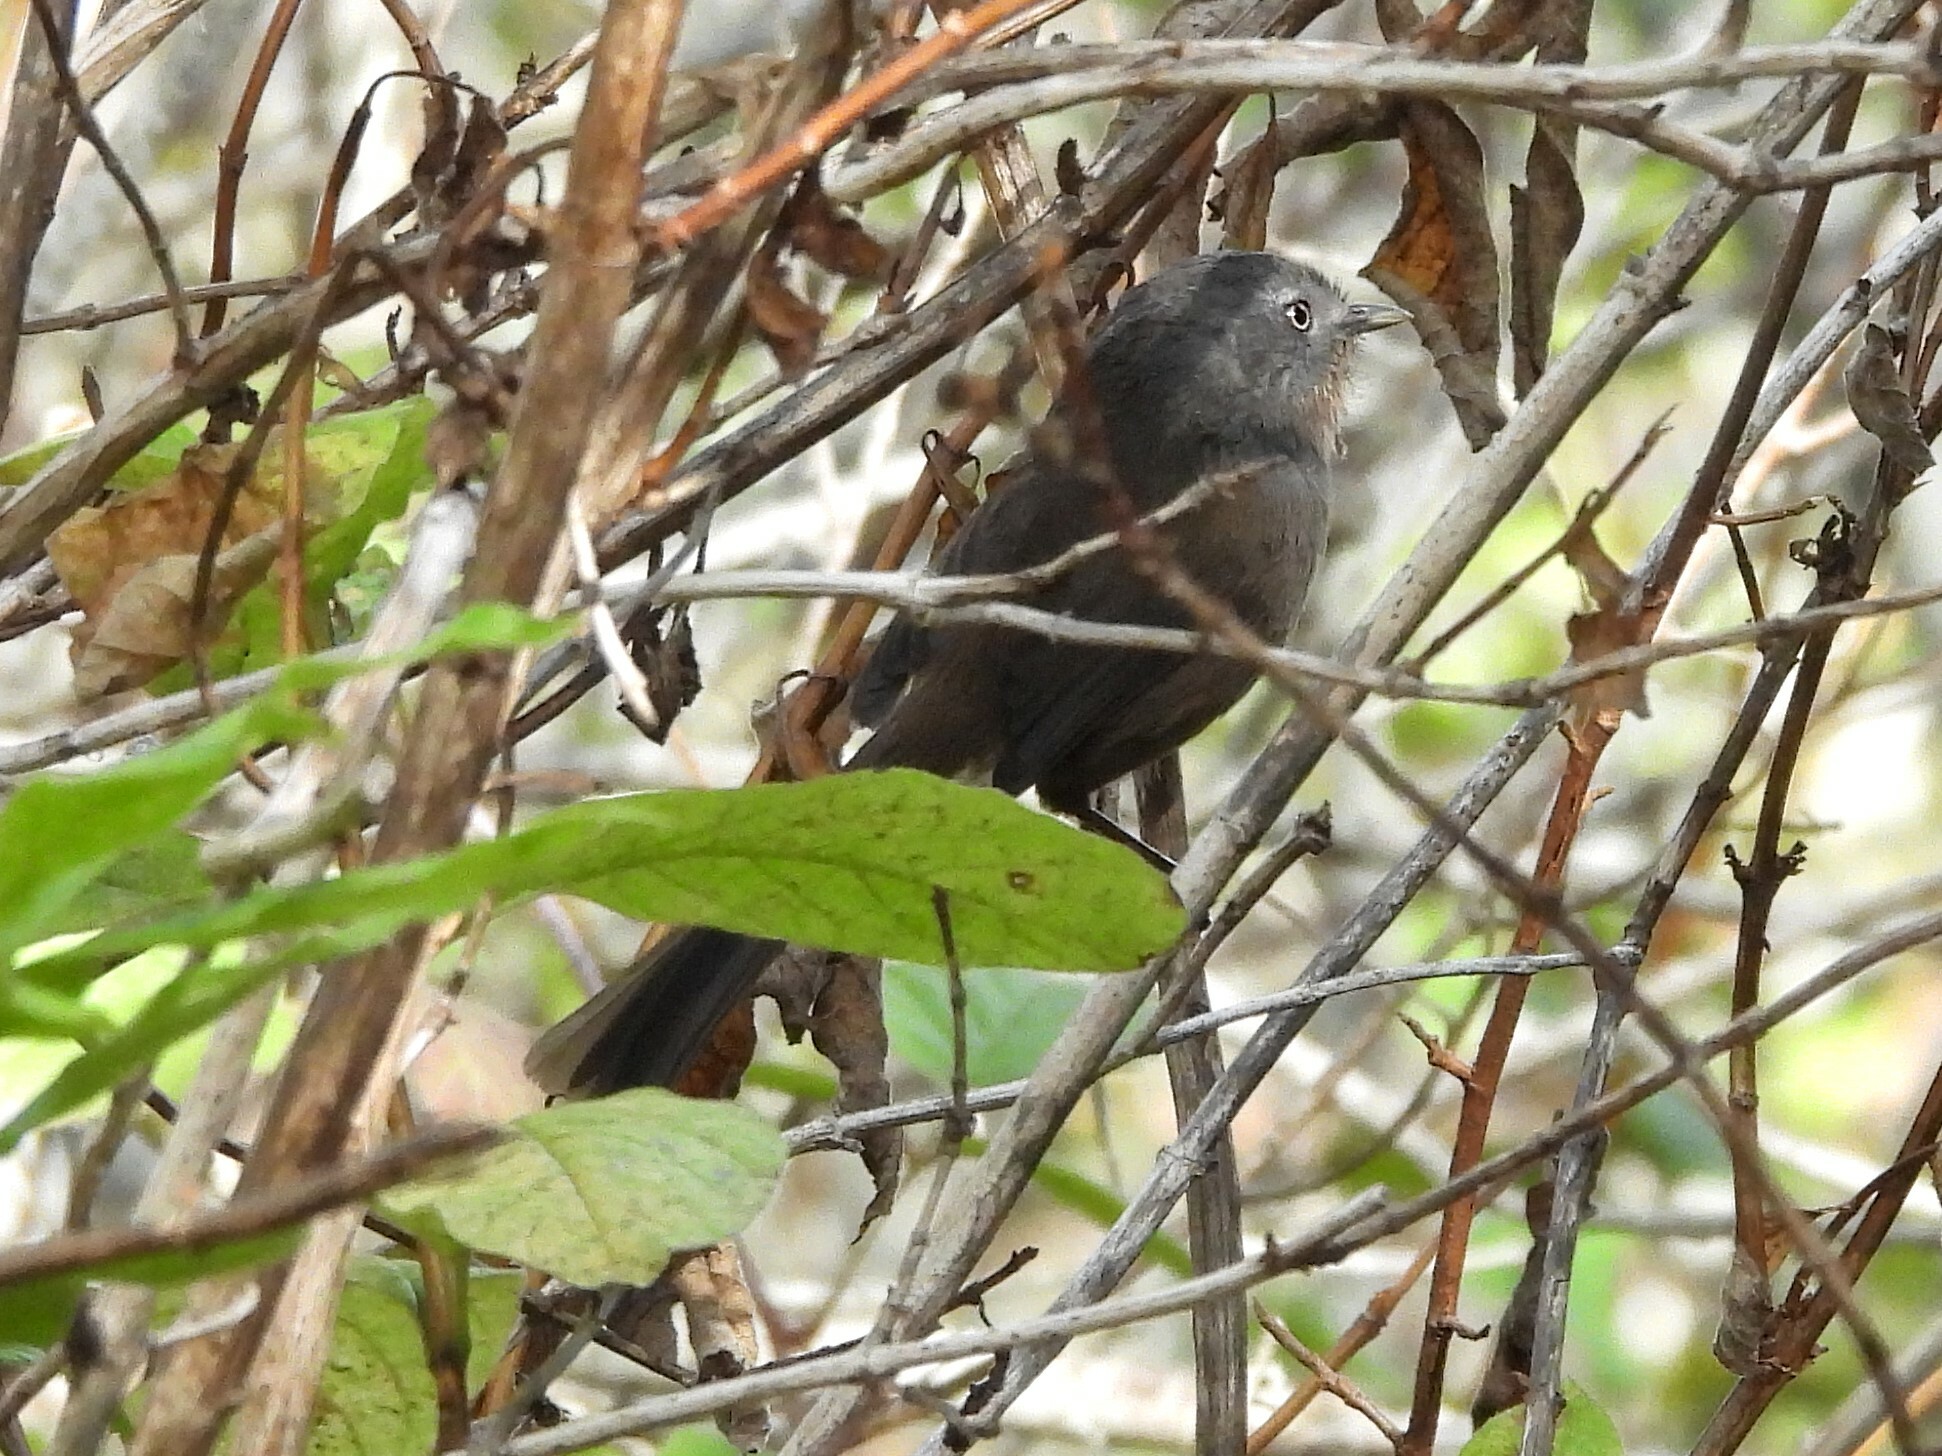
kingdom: Animalia
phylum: Chordata
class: Aves
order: Passeriformes
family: Sylviidae
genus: Chamaea
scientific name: Chamaea fasciata
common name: Wrentit
